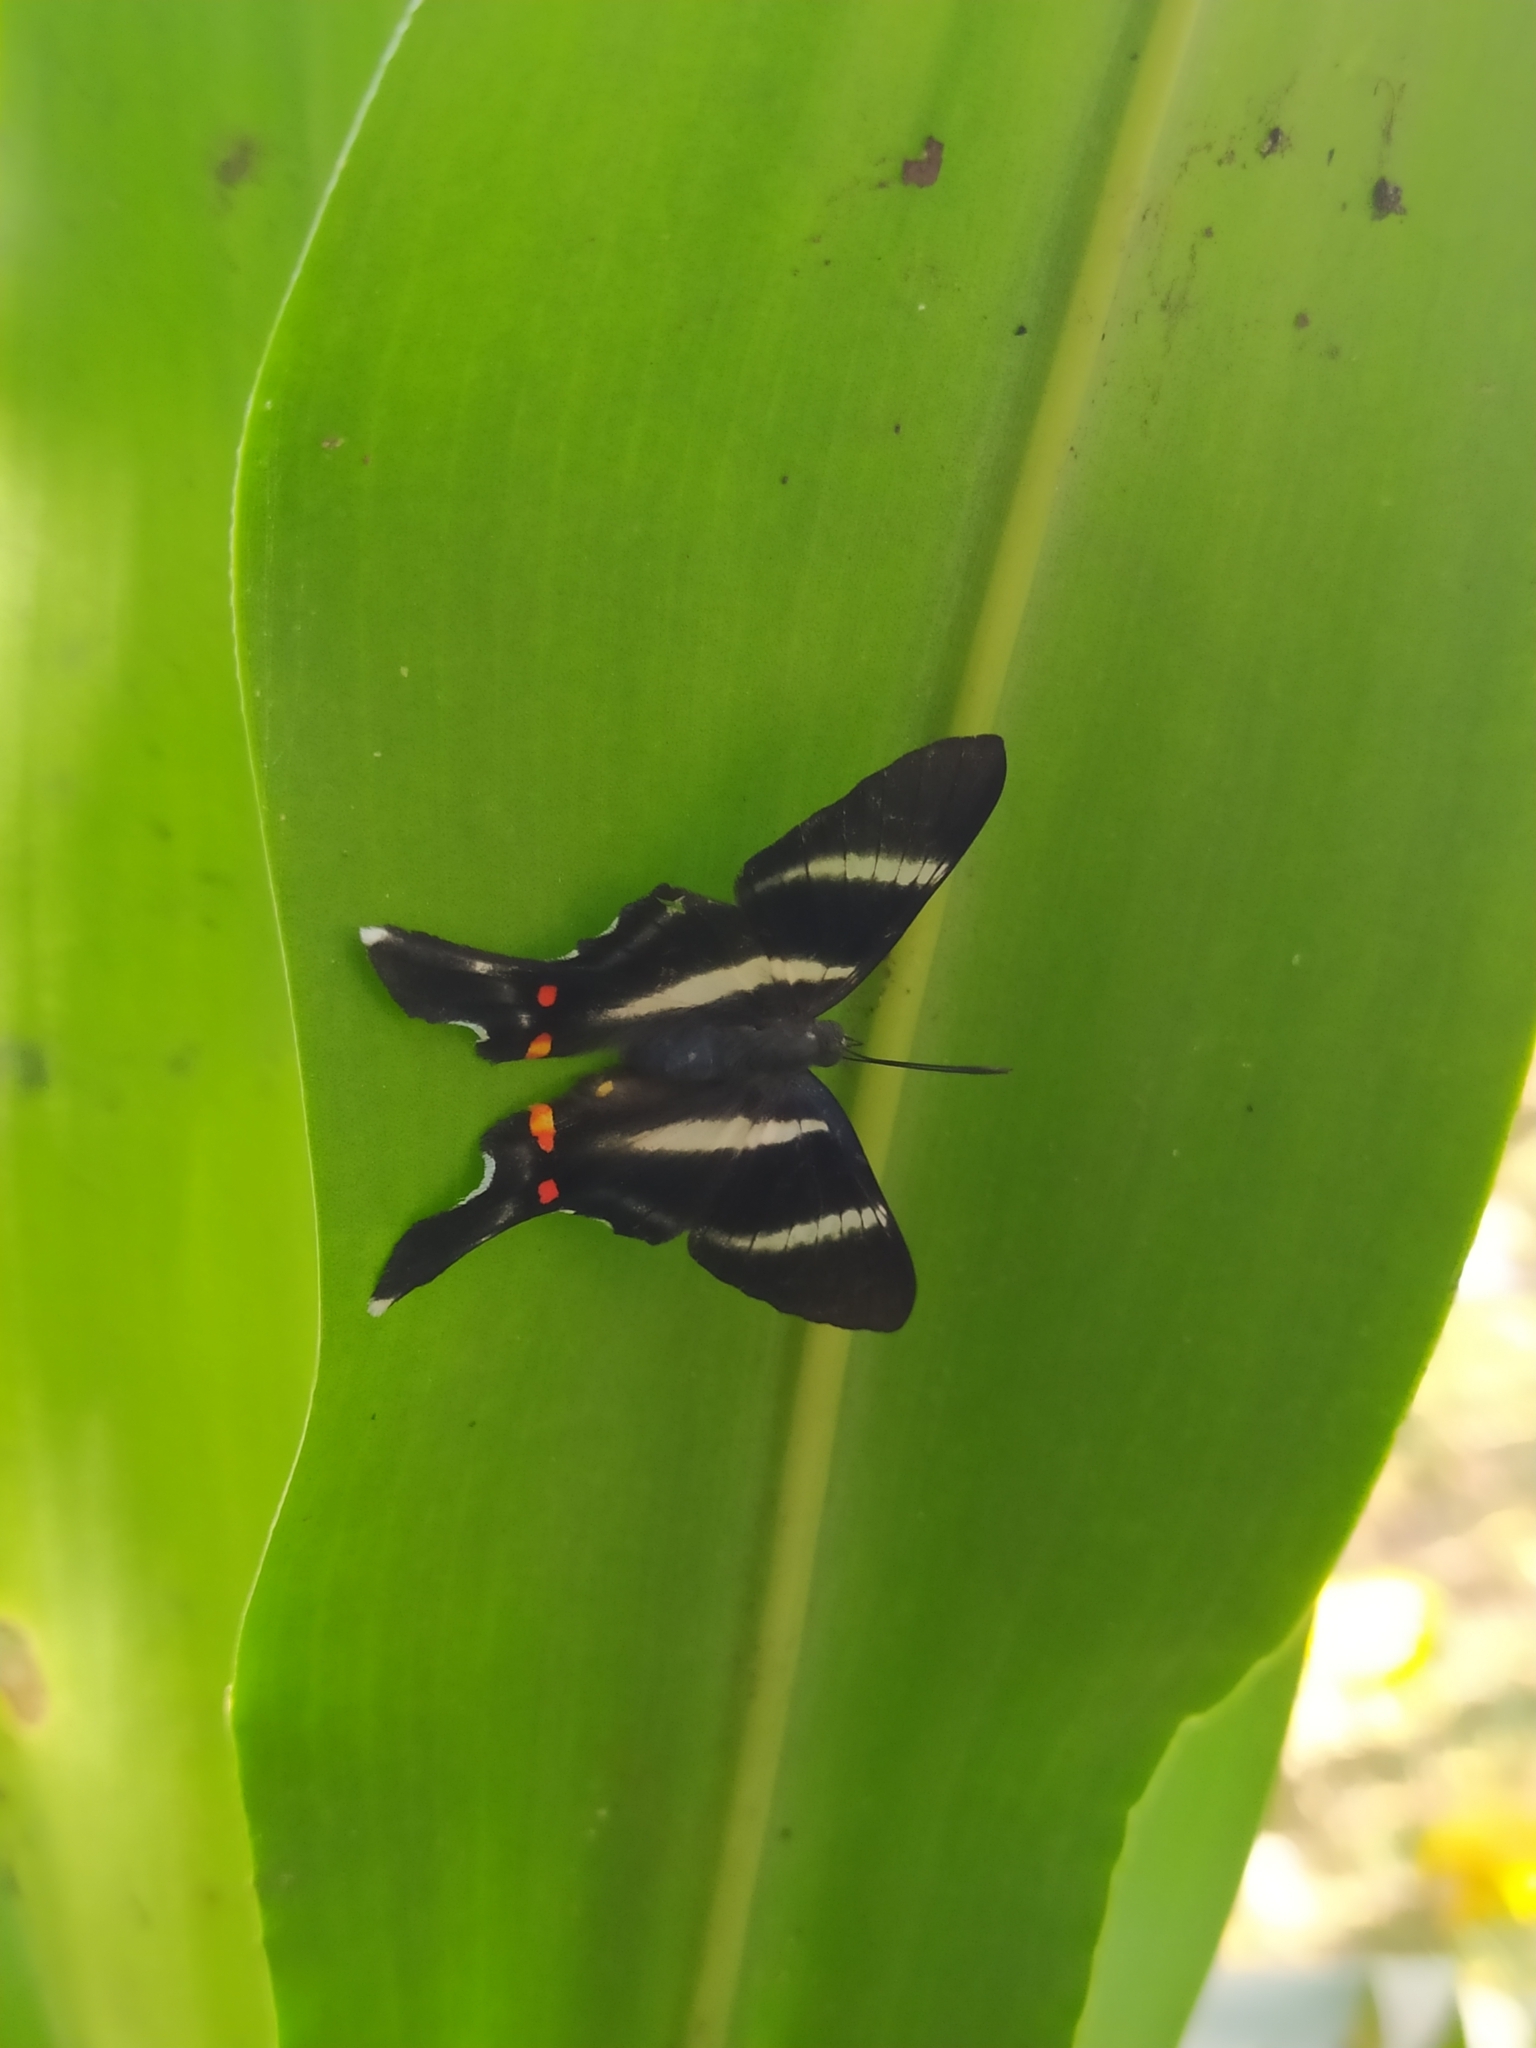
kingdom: Animalia
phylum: Arthropoda
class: Insecta
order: Lepidoptera
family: Riodinidae
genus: Rhetus
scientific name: Rhetus periander
